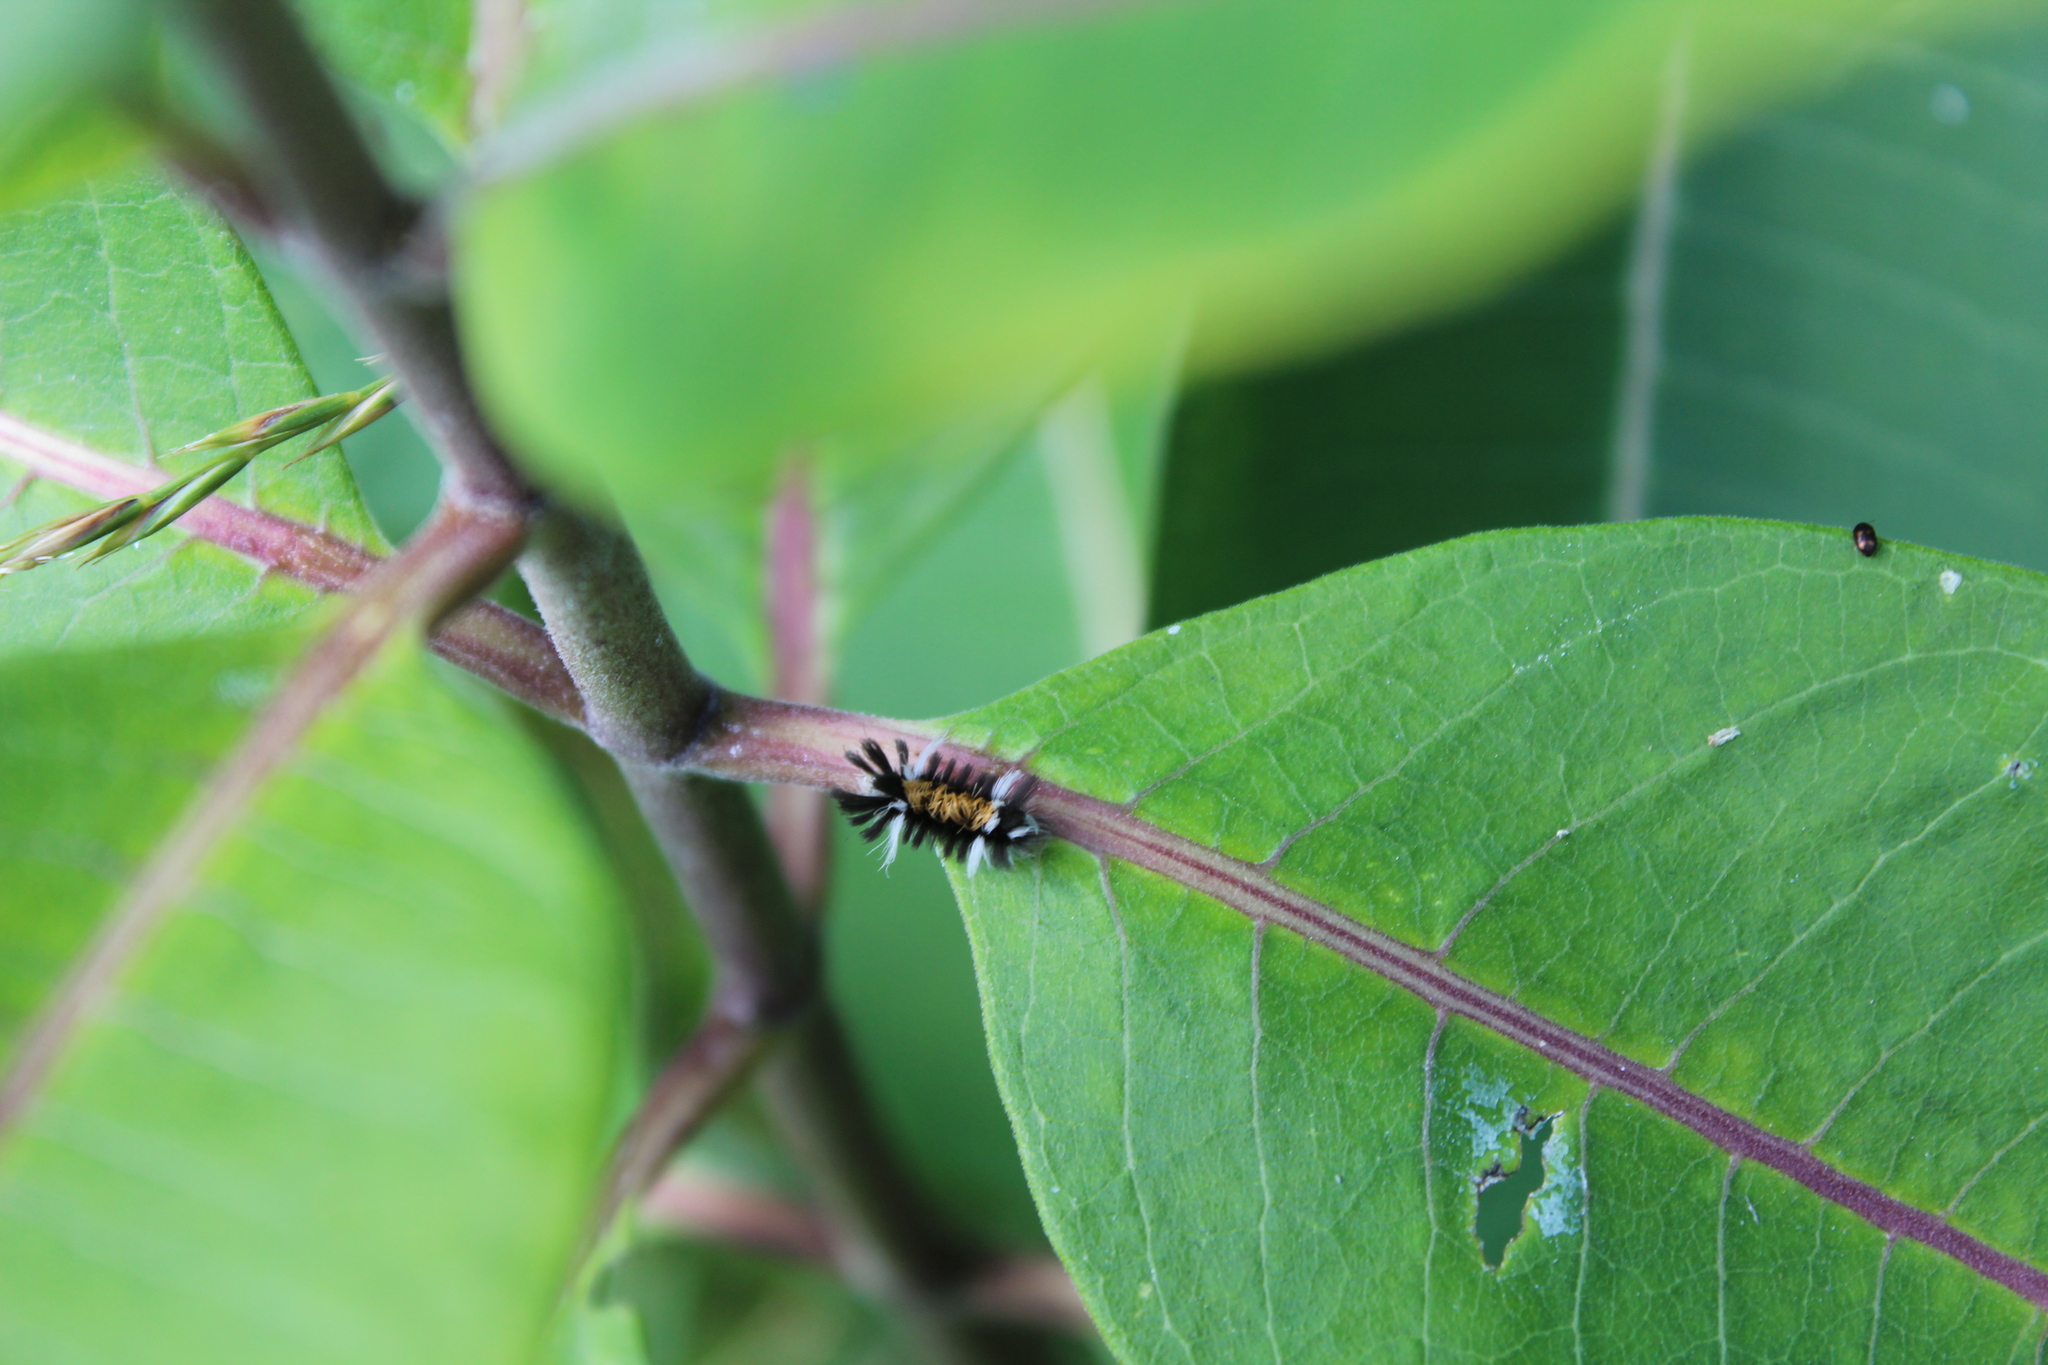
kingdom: Animalia
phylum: Arthropoda
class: Insecta
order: Lepidoptera
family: Erebidae
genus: Euchaetes
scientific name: Euchaetes egle
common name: Milkweed tussock moth
